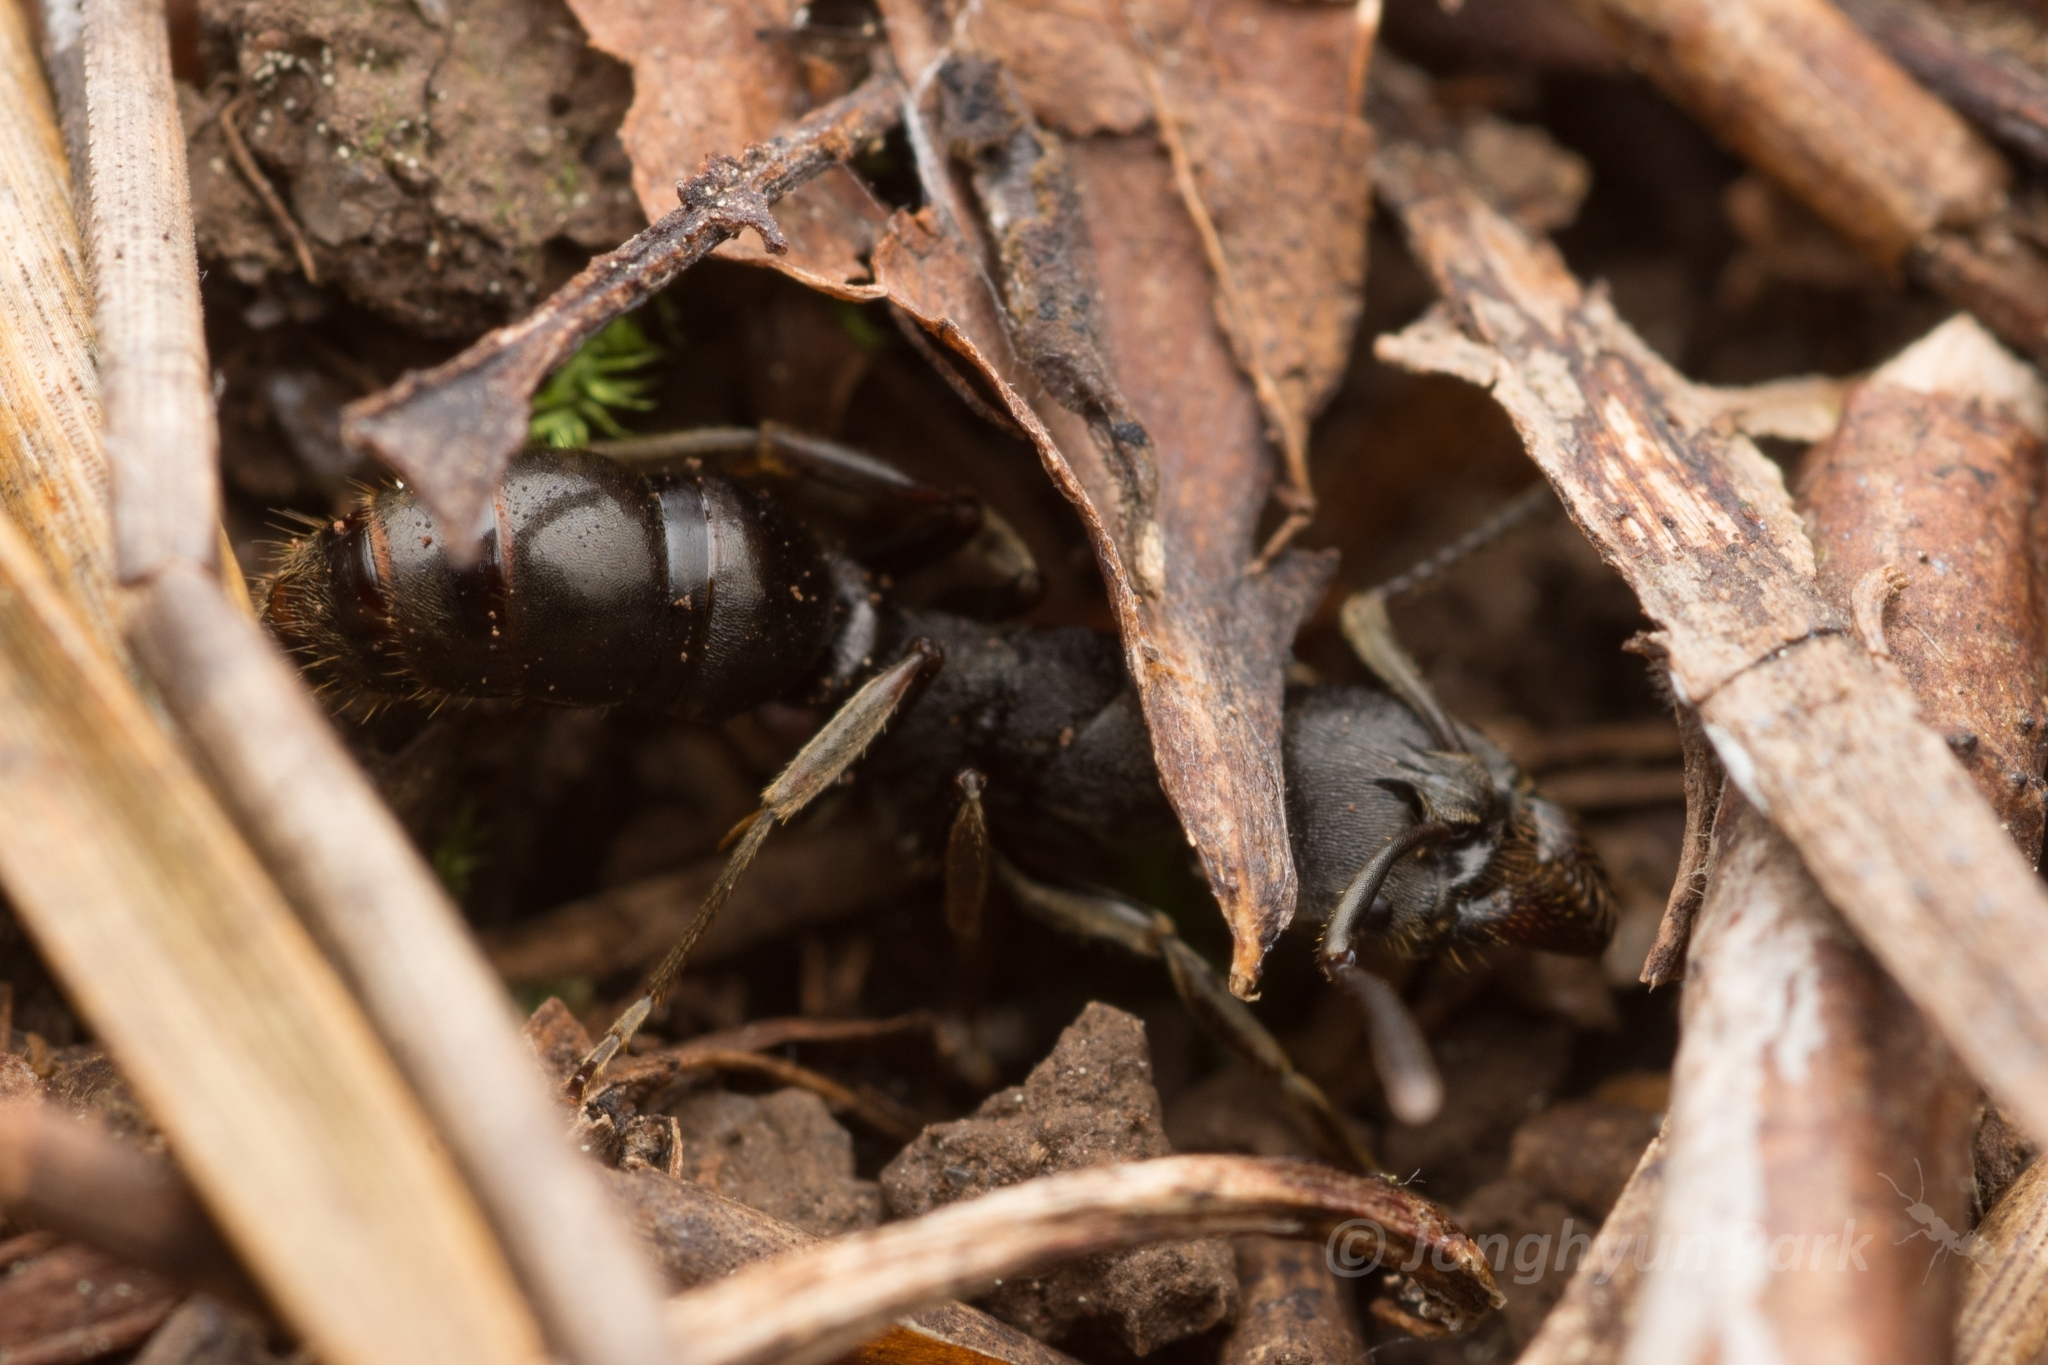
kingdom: Animalia
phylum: Arthropoda
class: Insecta
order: Hymenoptera
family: Formicidae
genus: Ectomomyrmex
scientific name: Ectomomyrmex javanus
